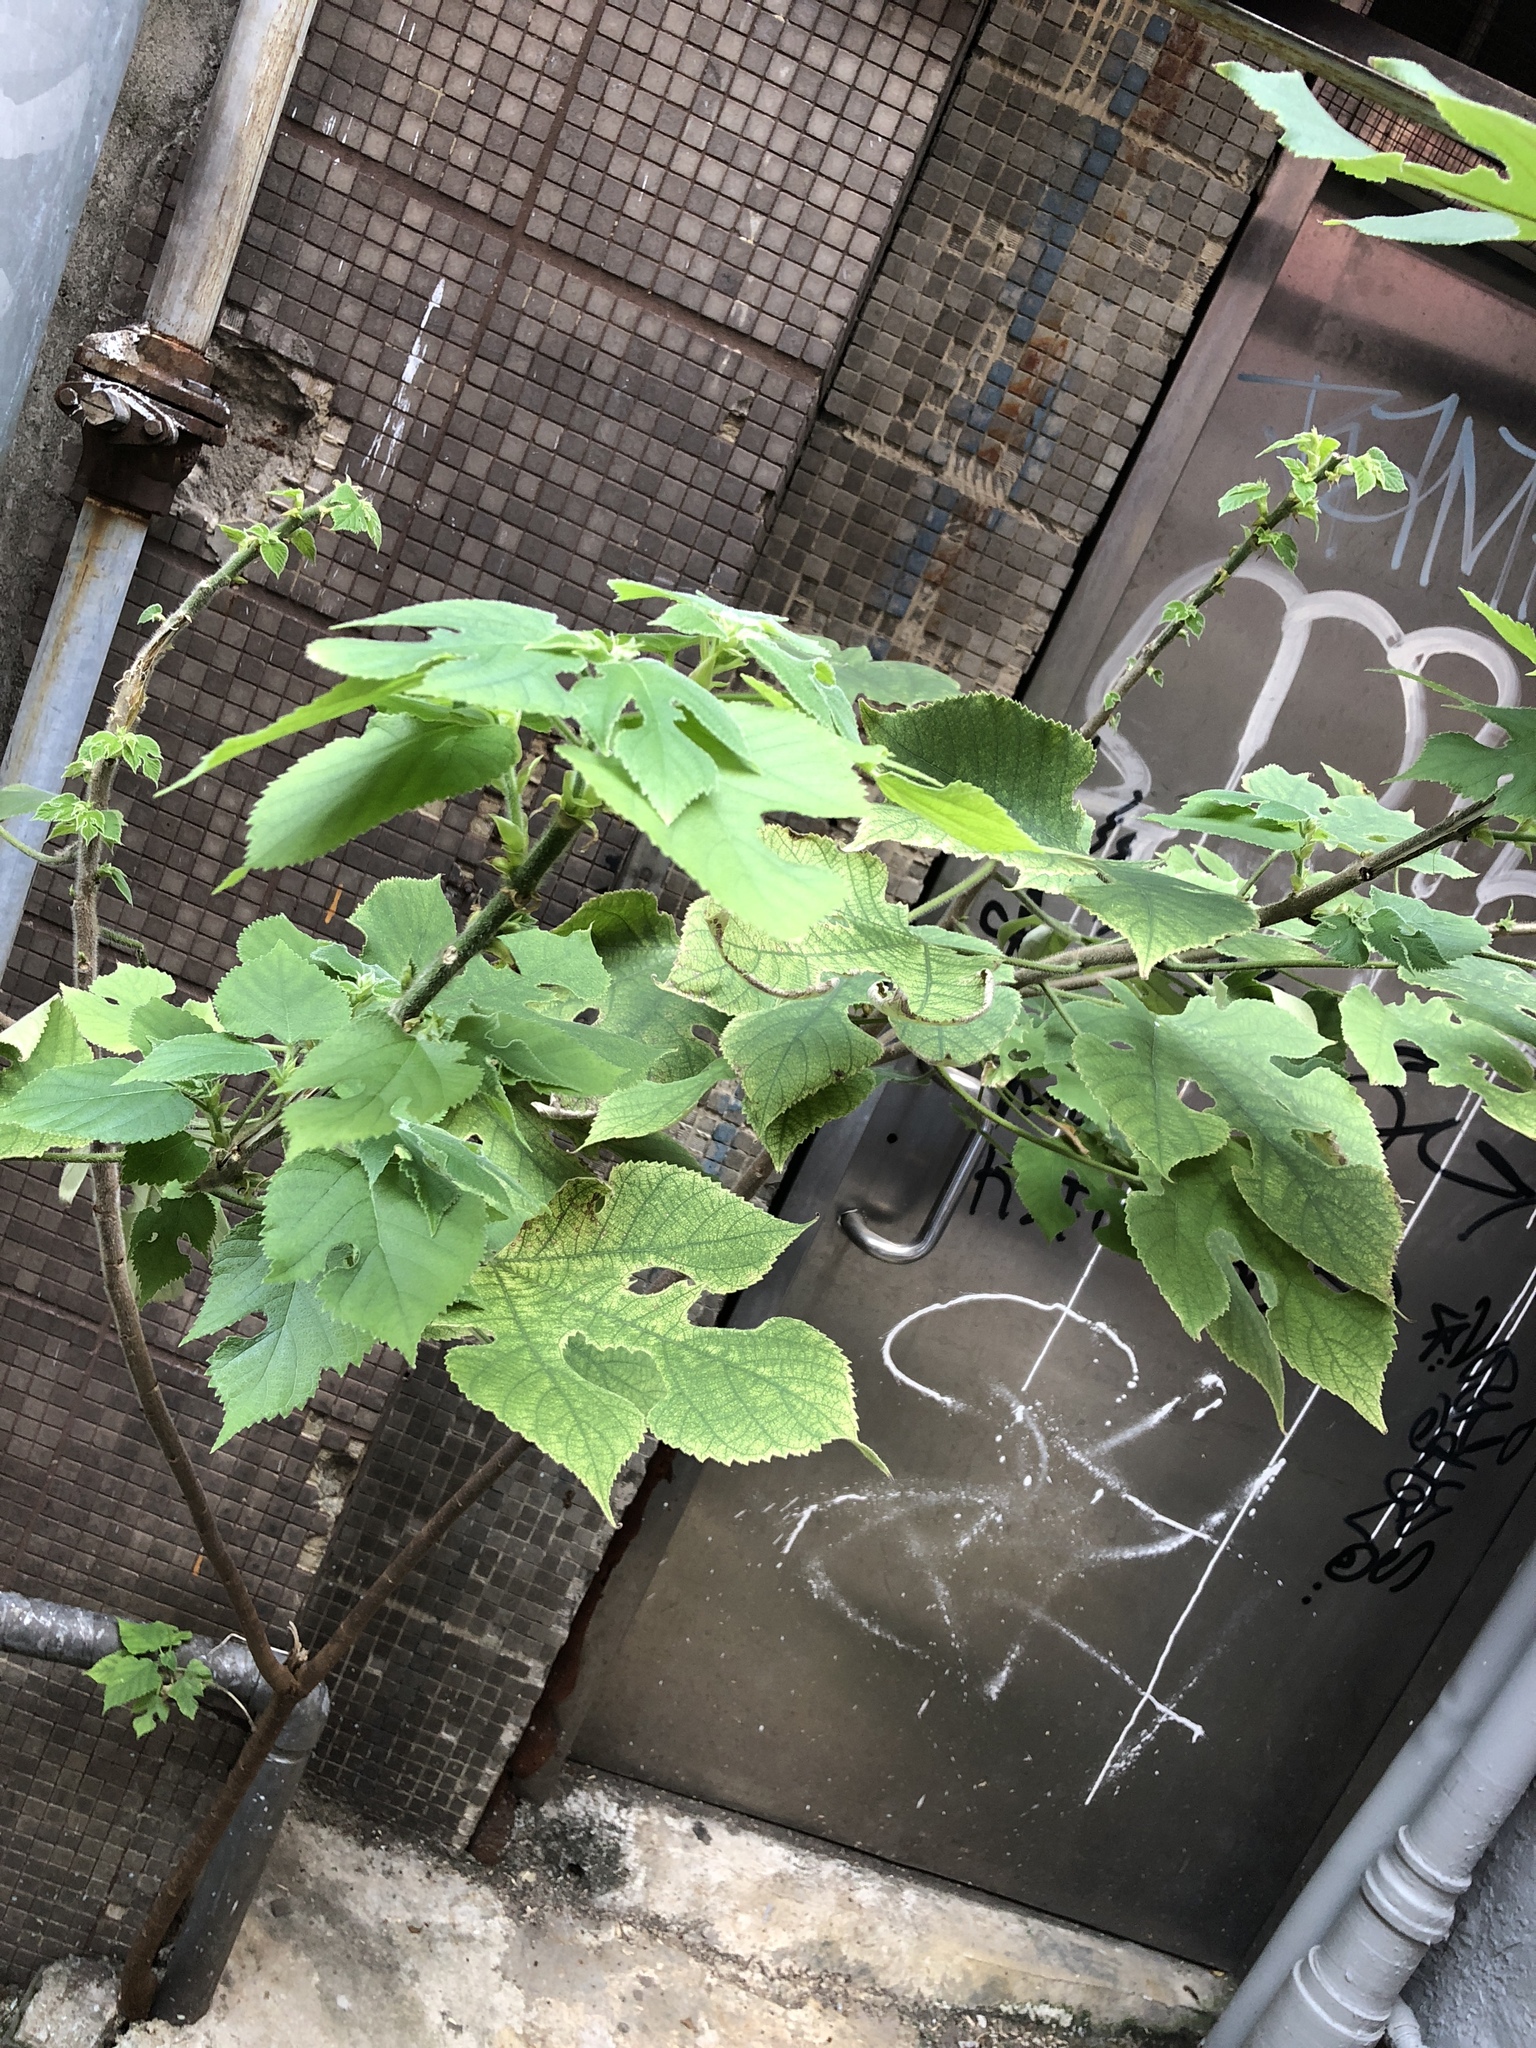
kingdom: Plantae
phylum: Tracheophyta
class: Magnoliopsida
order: Rosales
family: Moraceae
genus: Broussonetia
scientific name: Broussonetia papyrifera
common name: Paper mulberry
